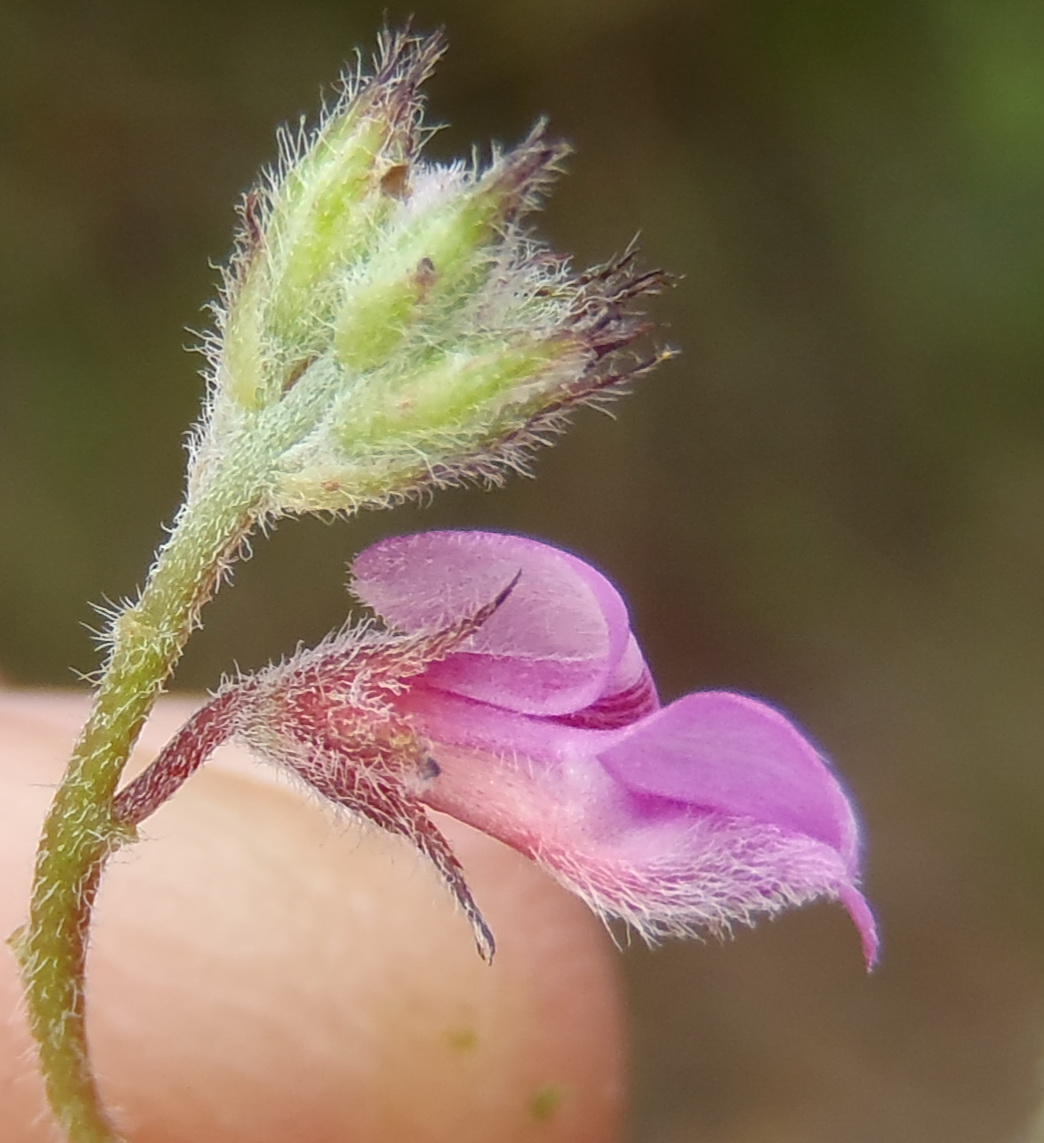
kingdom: Plantae
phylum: Tracheophyta
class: Magnoliopsida
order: Fabales
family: Fabaceae
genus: Indigofera
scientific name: Indigofera alopecuroides
